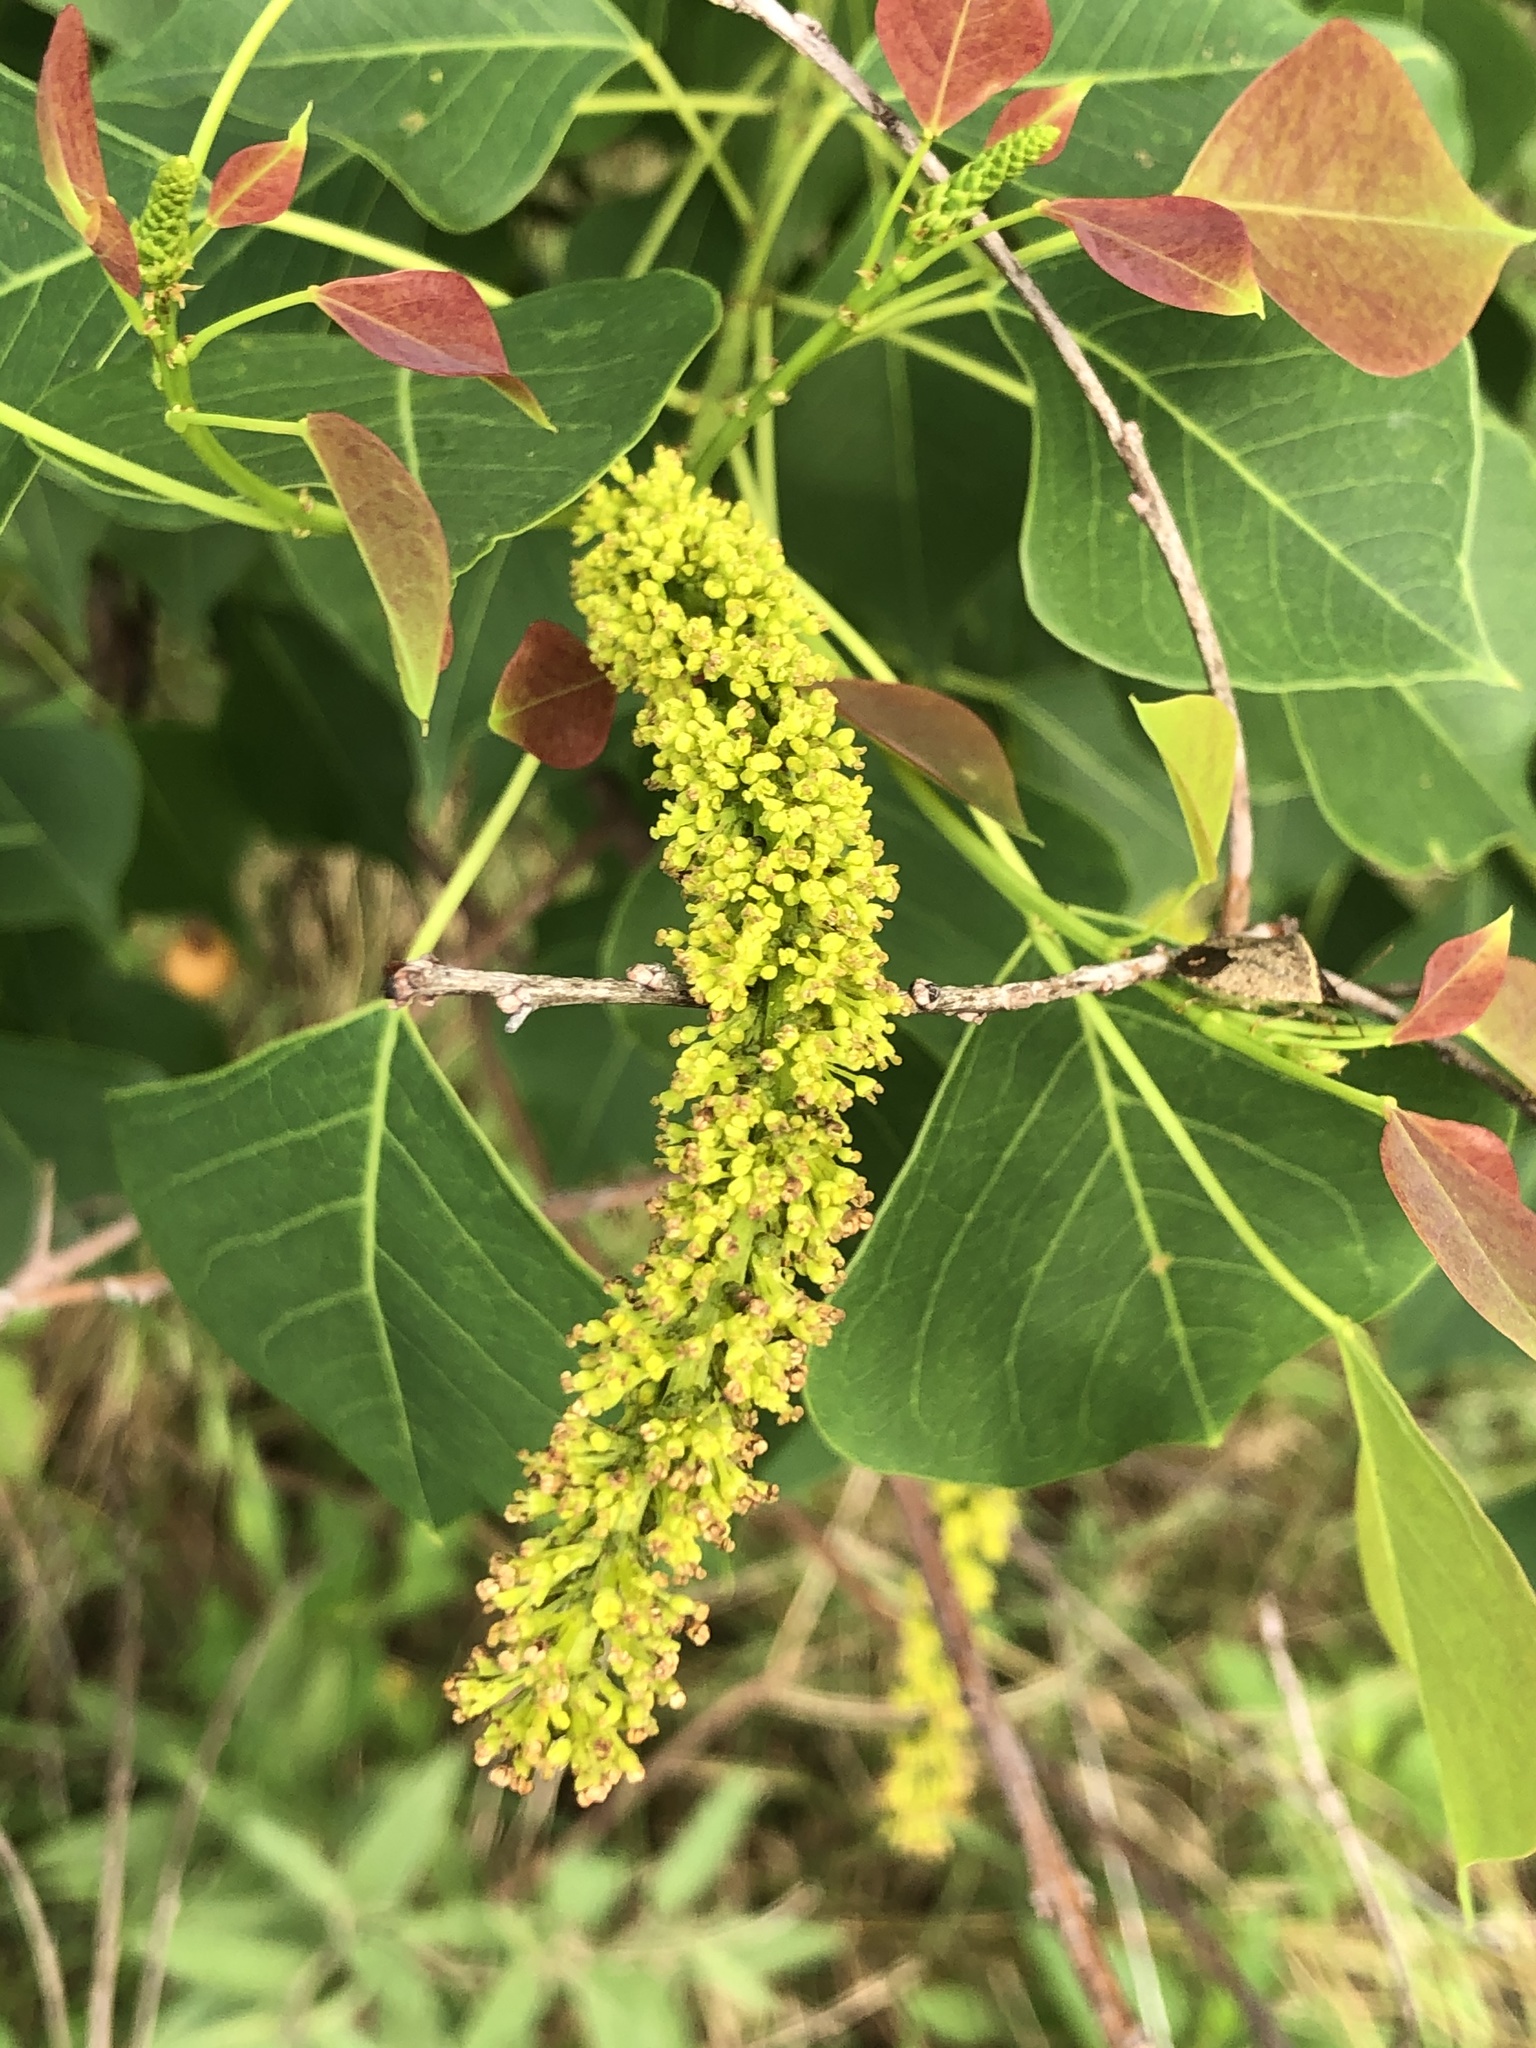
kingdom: Plantae
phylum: Tracheophyta
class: Magnoliopsida
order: Malpighiales
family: Euphorbiaceae
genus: Triadica
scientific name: Triadica sebifera
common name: Chinese tallow
